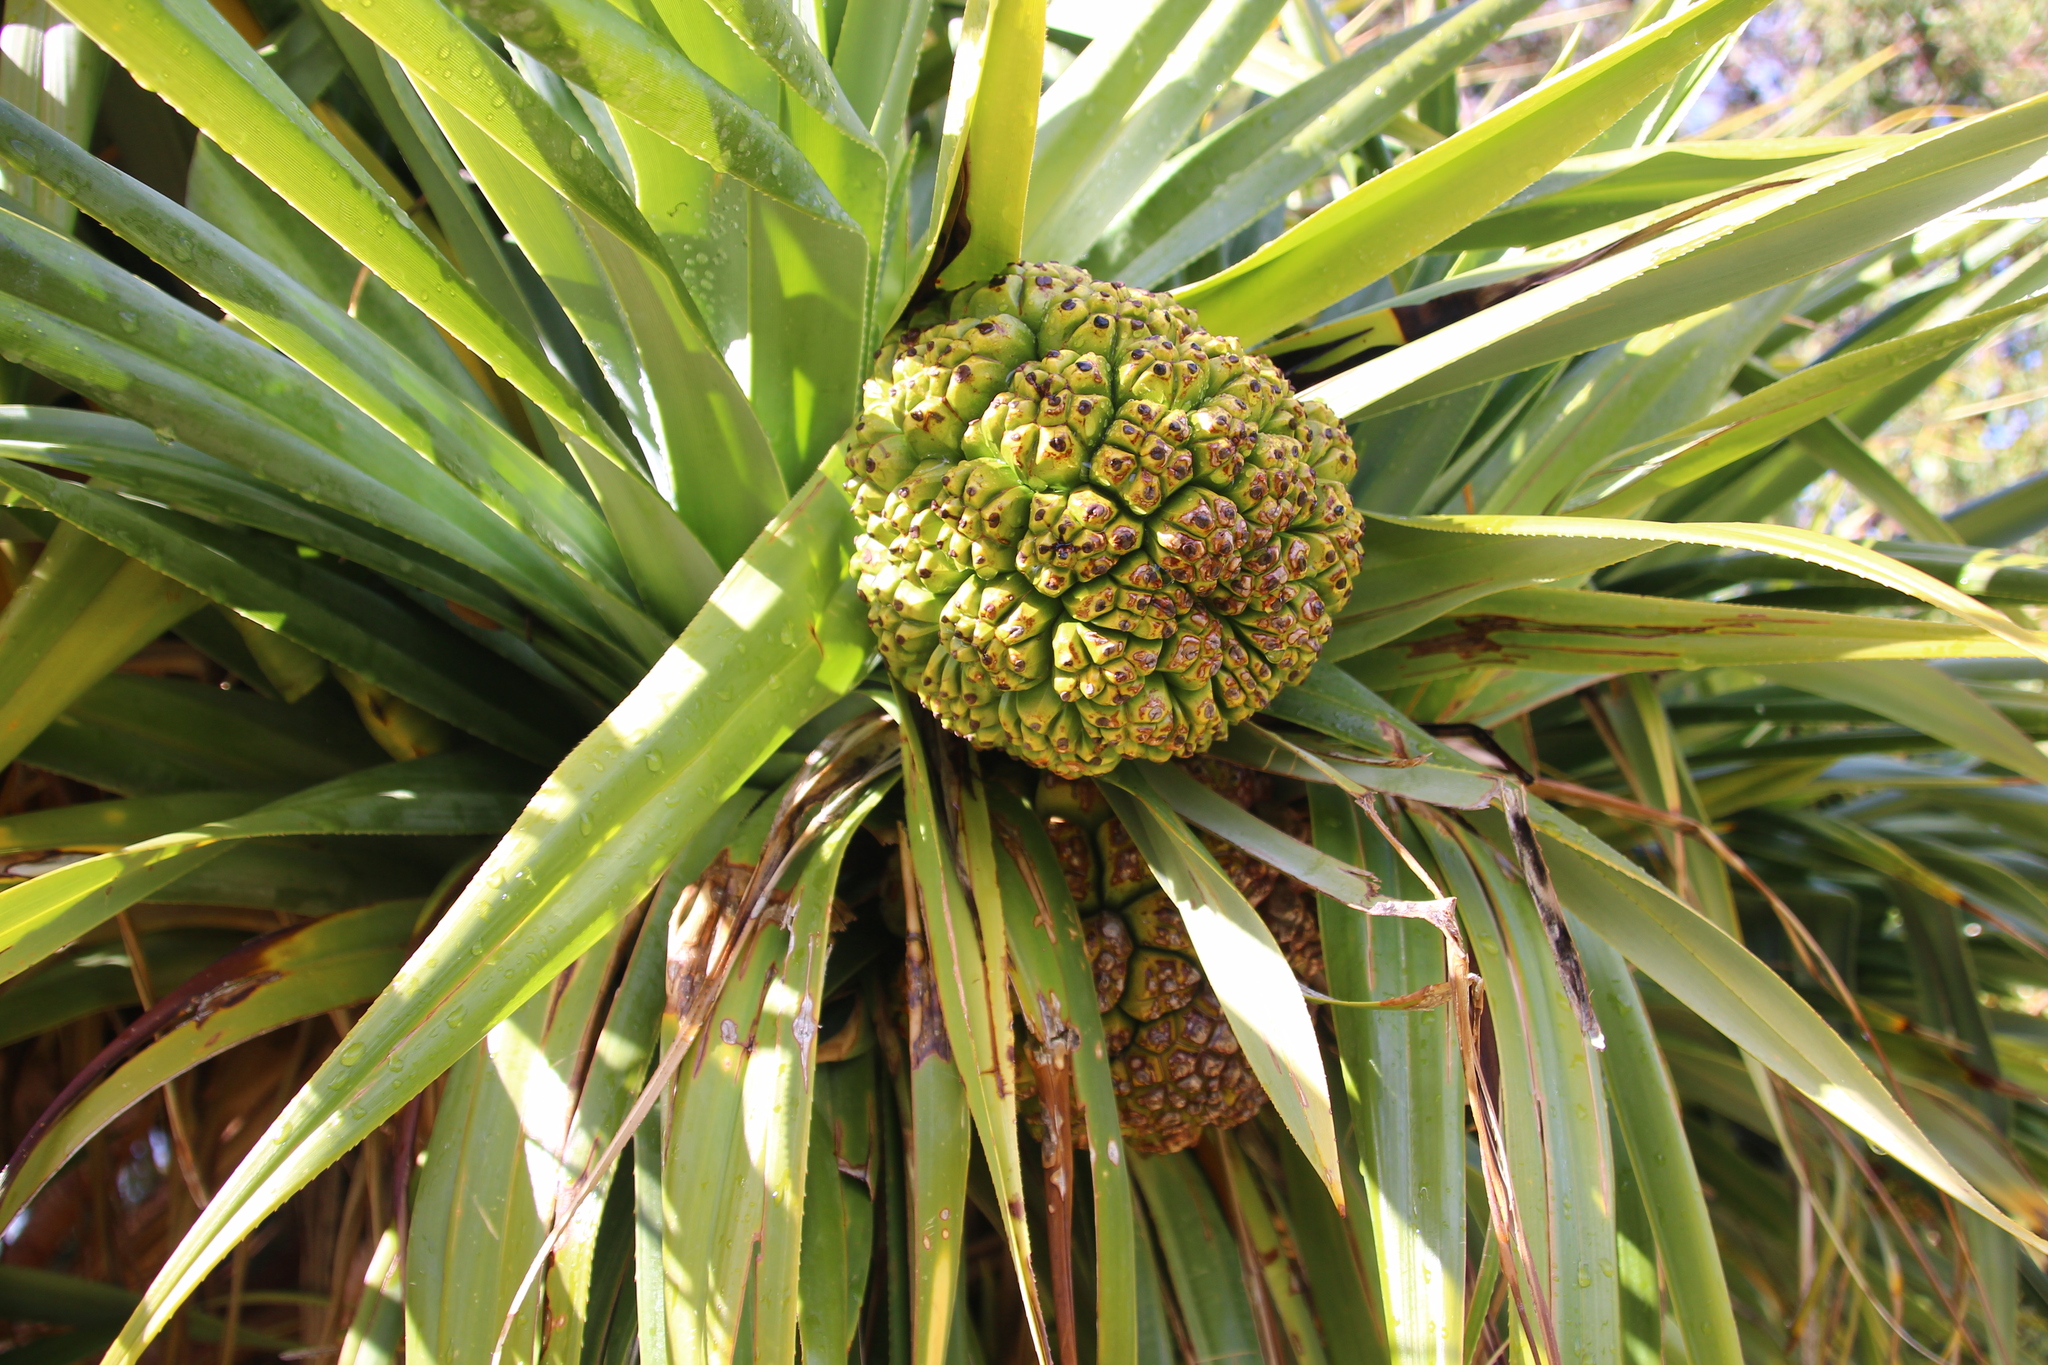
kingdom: Plantae
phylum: Tracheophyta
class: Liliopsida
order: Pandanales
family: Pandanaceae
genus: Pandanus
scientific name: Pandanus odorifer
